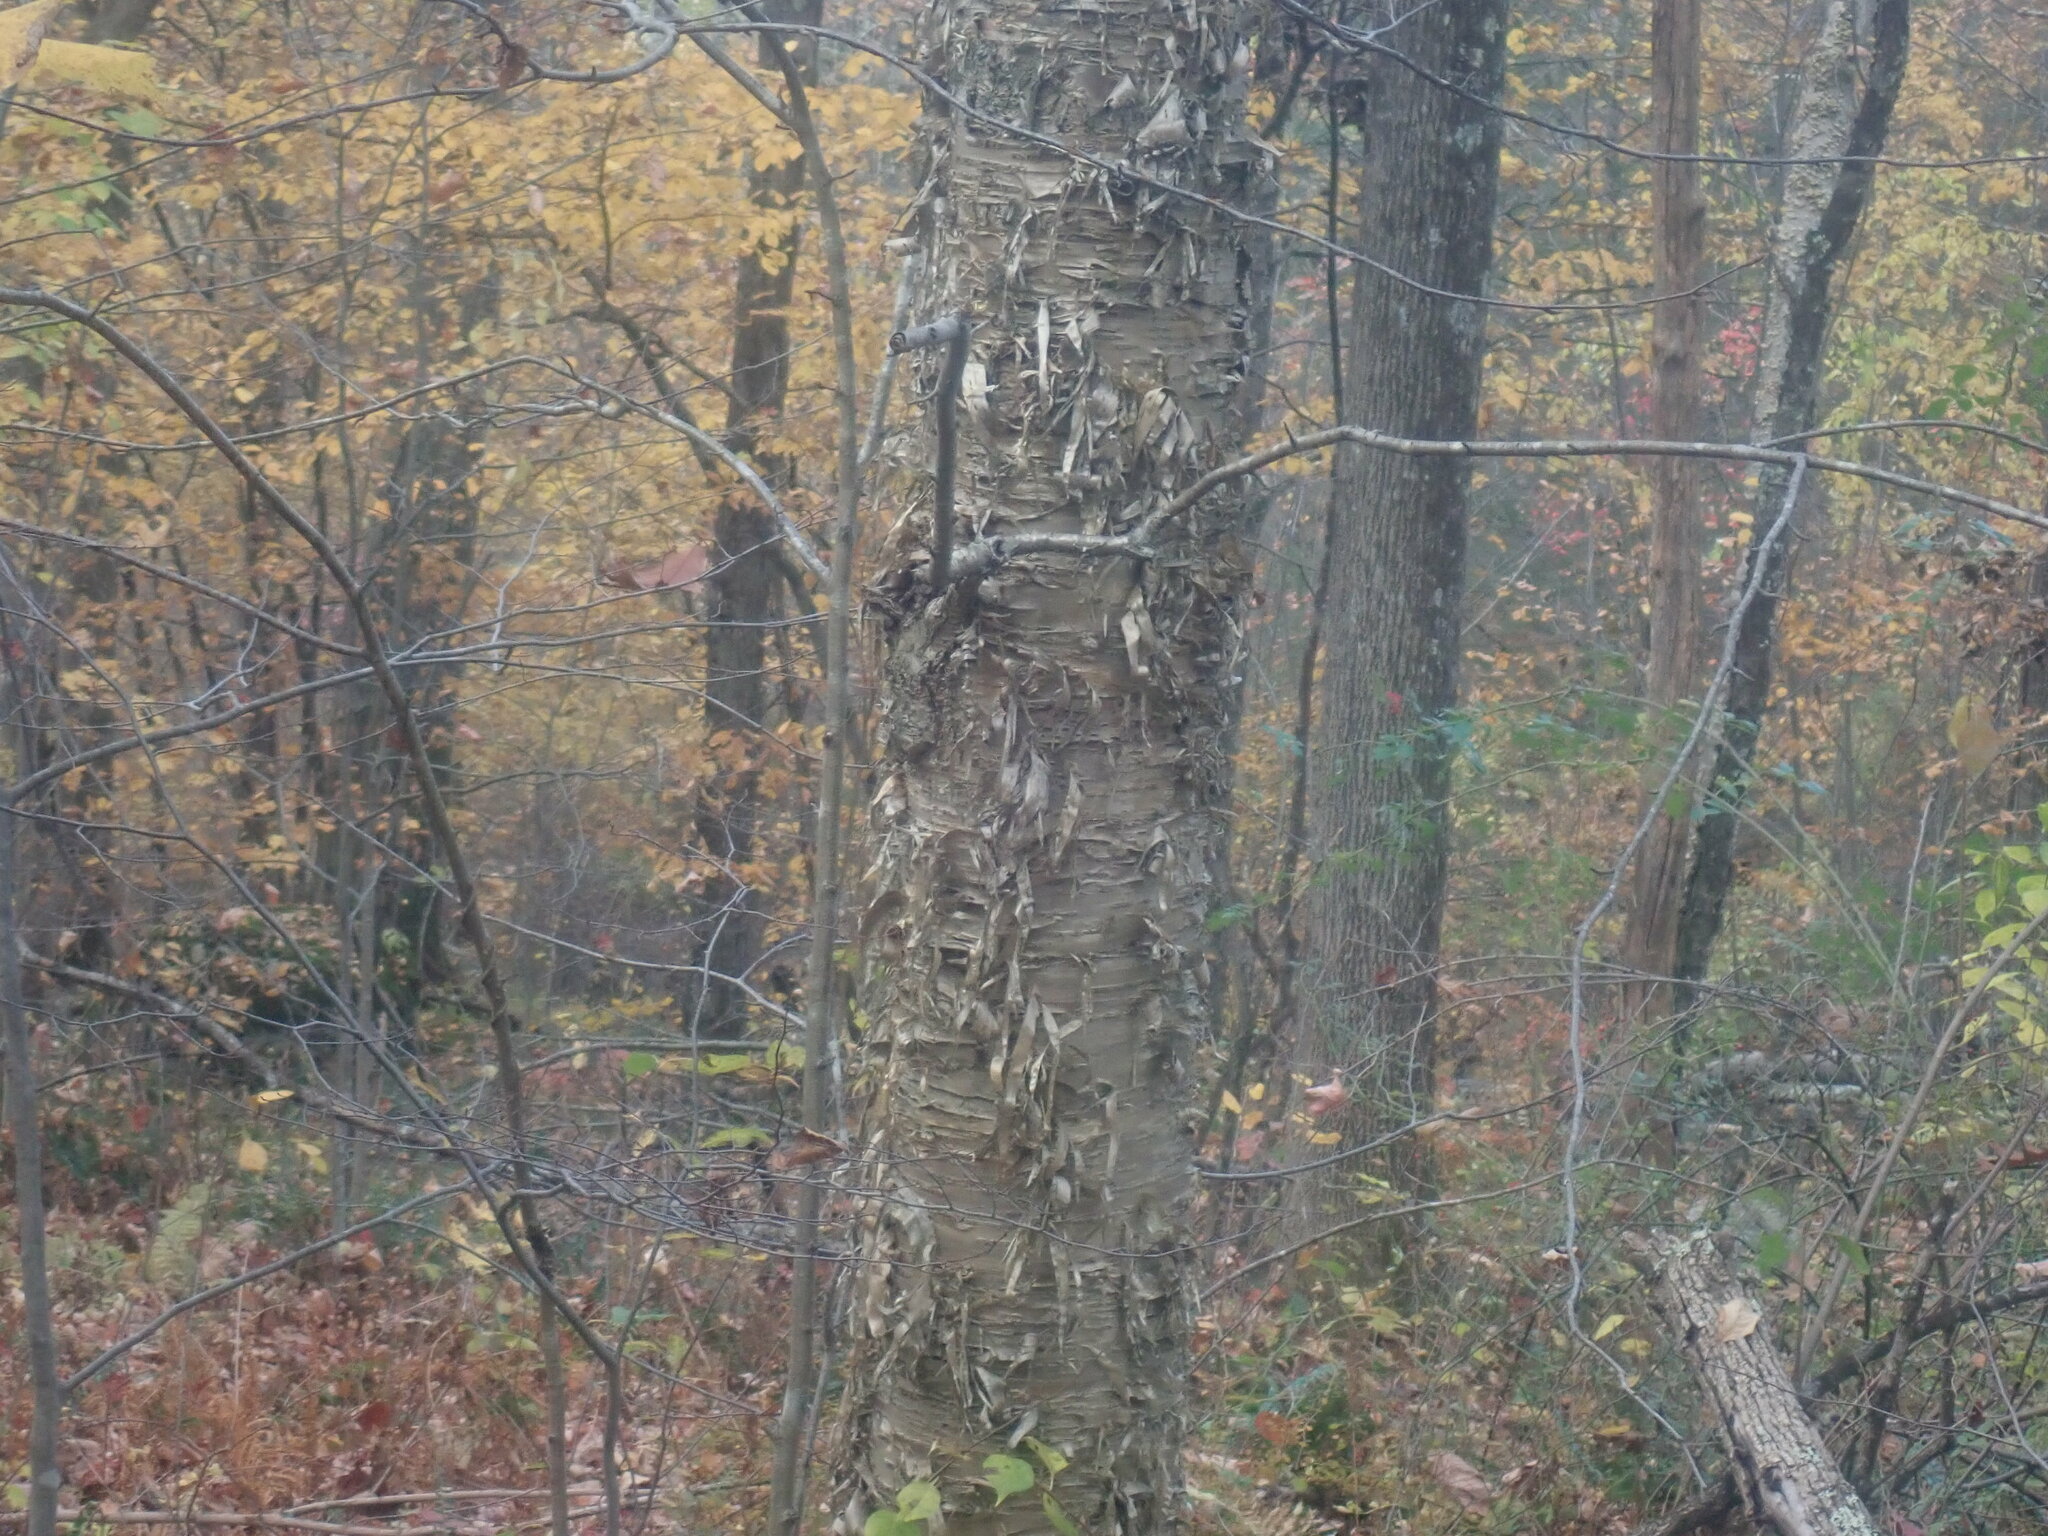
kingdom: Plantae
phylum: Tracheophyta
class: Magnoliopsida
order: Fagales
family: Betulaceae
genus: Betula
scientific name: Betula alleghaniensis
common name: Yellow birch
